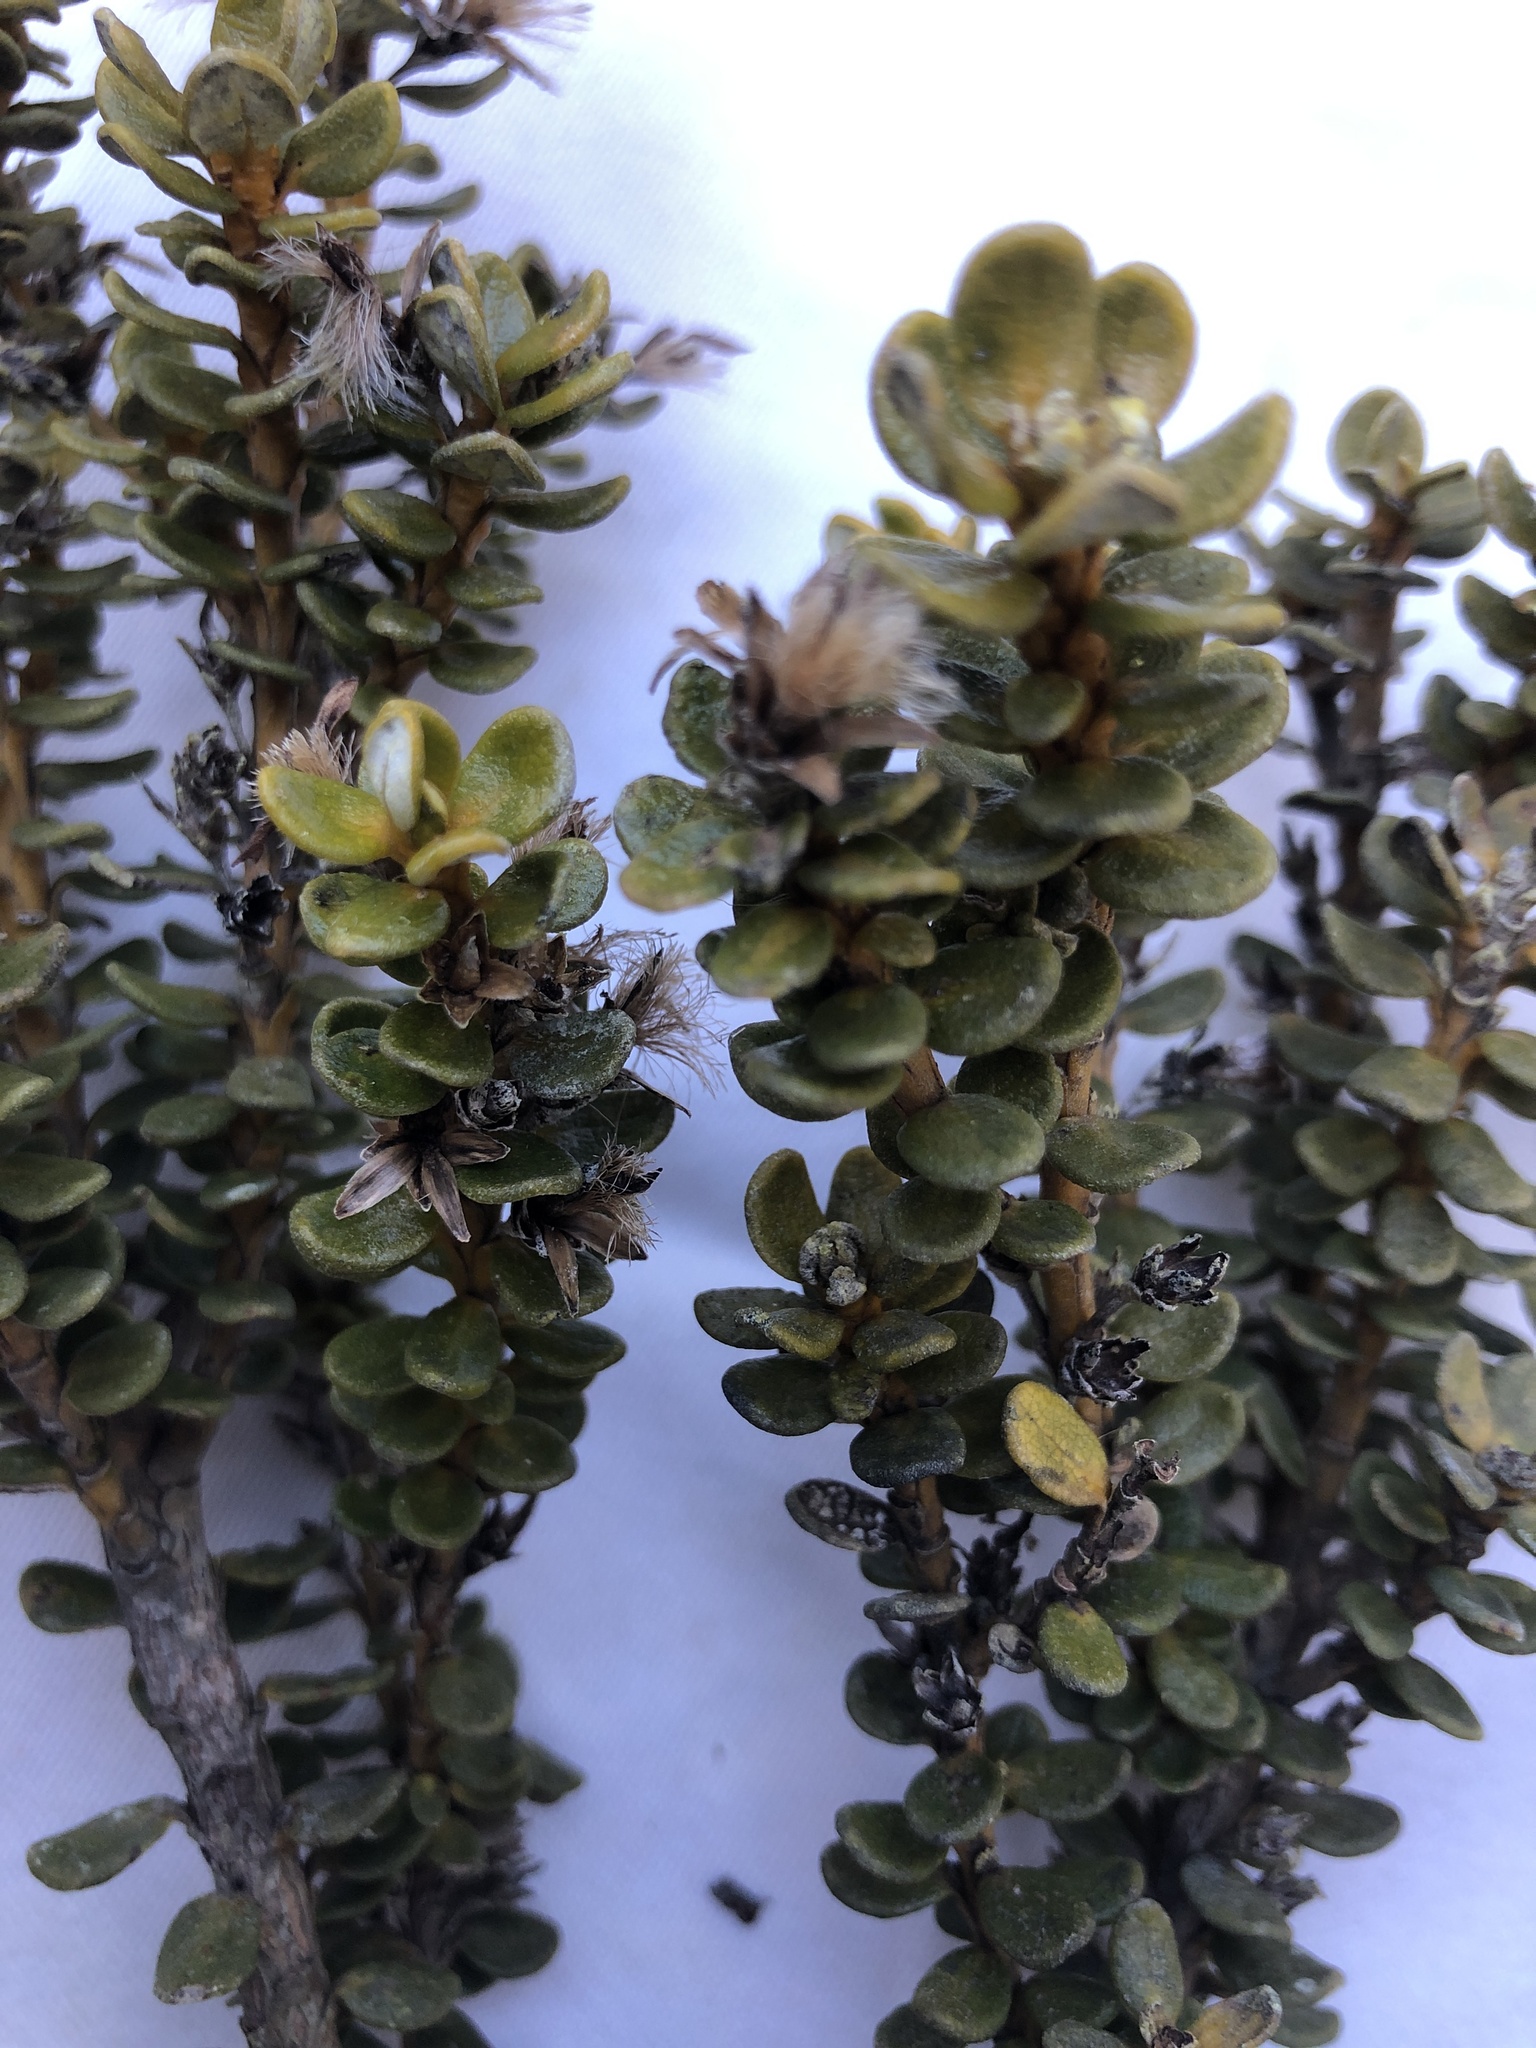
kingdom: Plantae
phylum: Tracheophyta
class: Magnoliopsida
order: Asterales
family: Asteraceae
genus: Olearia
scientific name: Olearia nummularifolia
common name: Sticky daisybush
